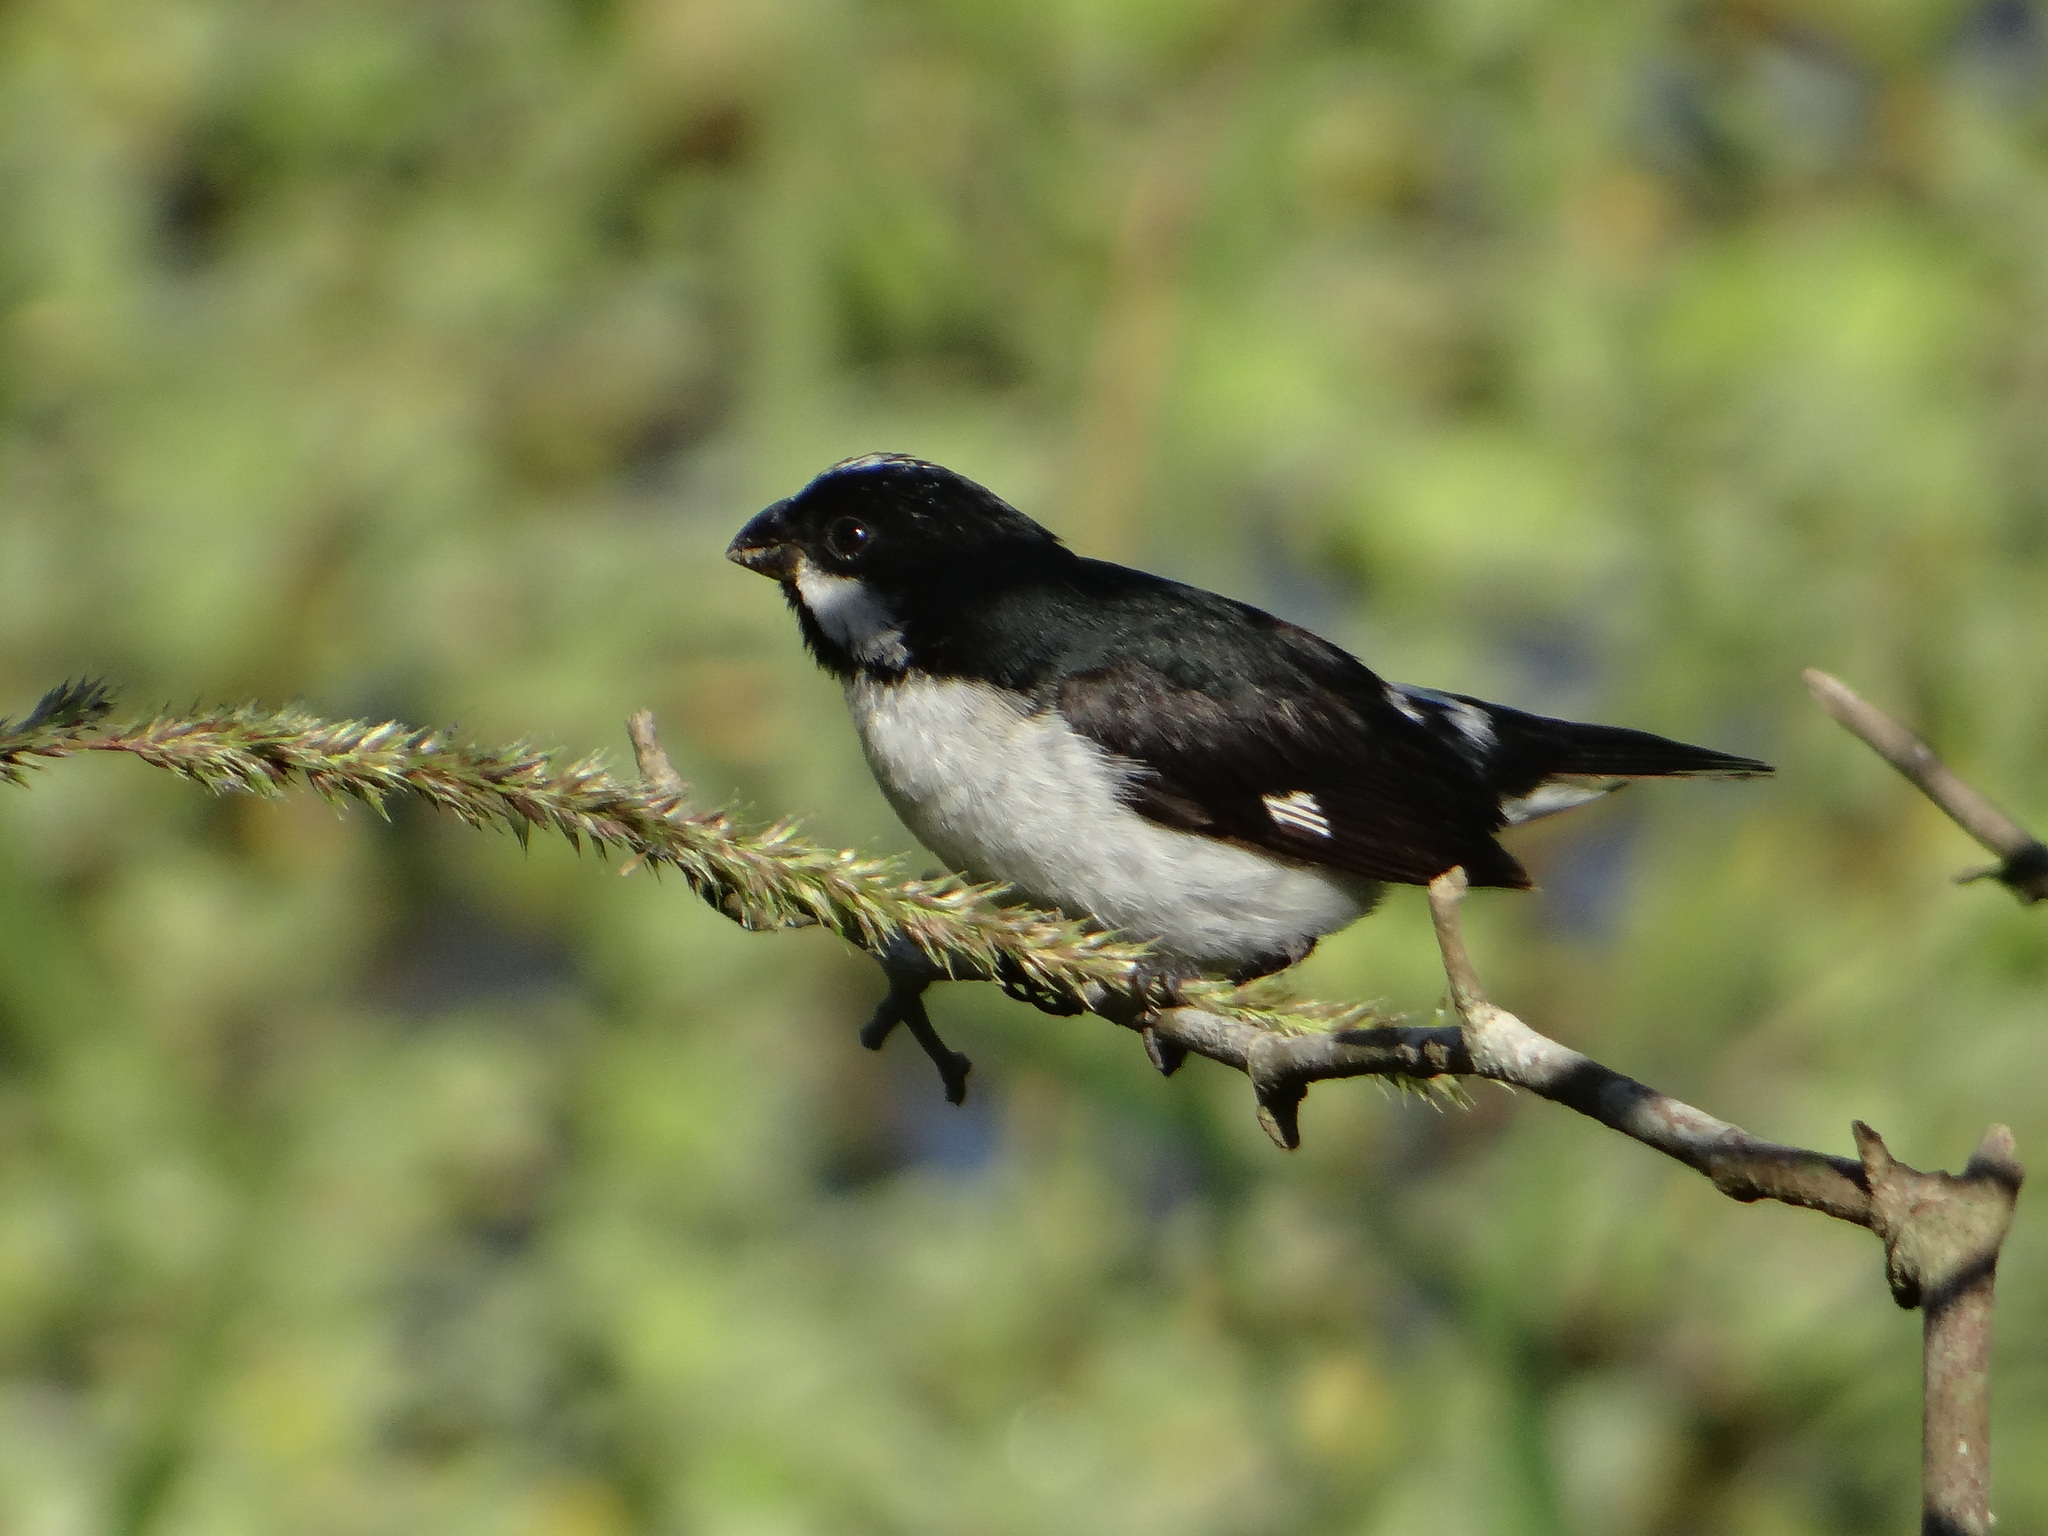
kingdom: Animalia
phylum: Chordata
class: Aves
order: Passeriformes
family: Thraupidae
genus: Sporophila
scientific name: Sporophila lineola
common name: Lined seedeater
